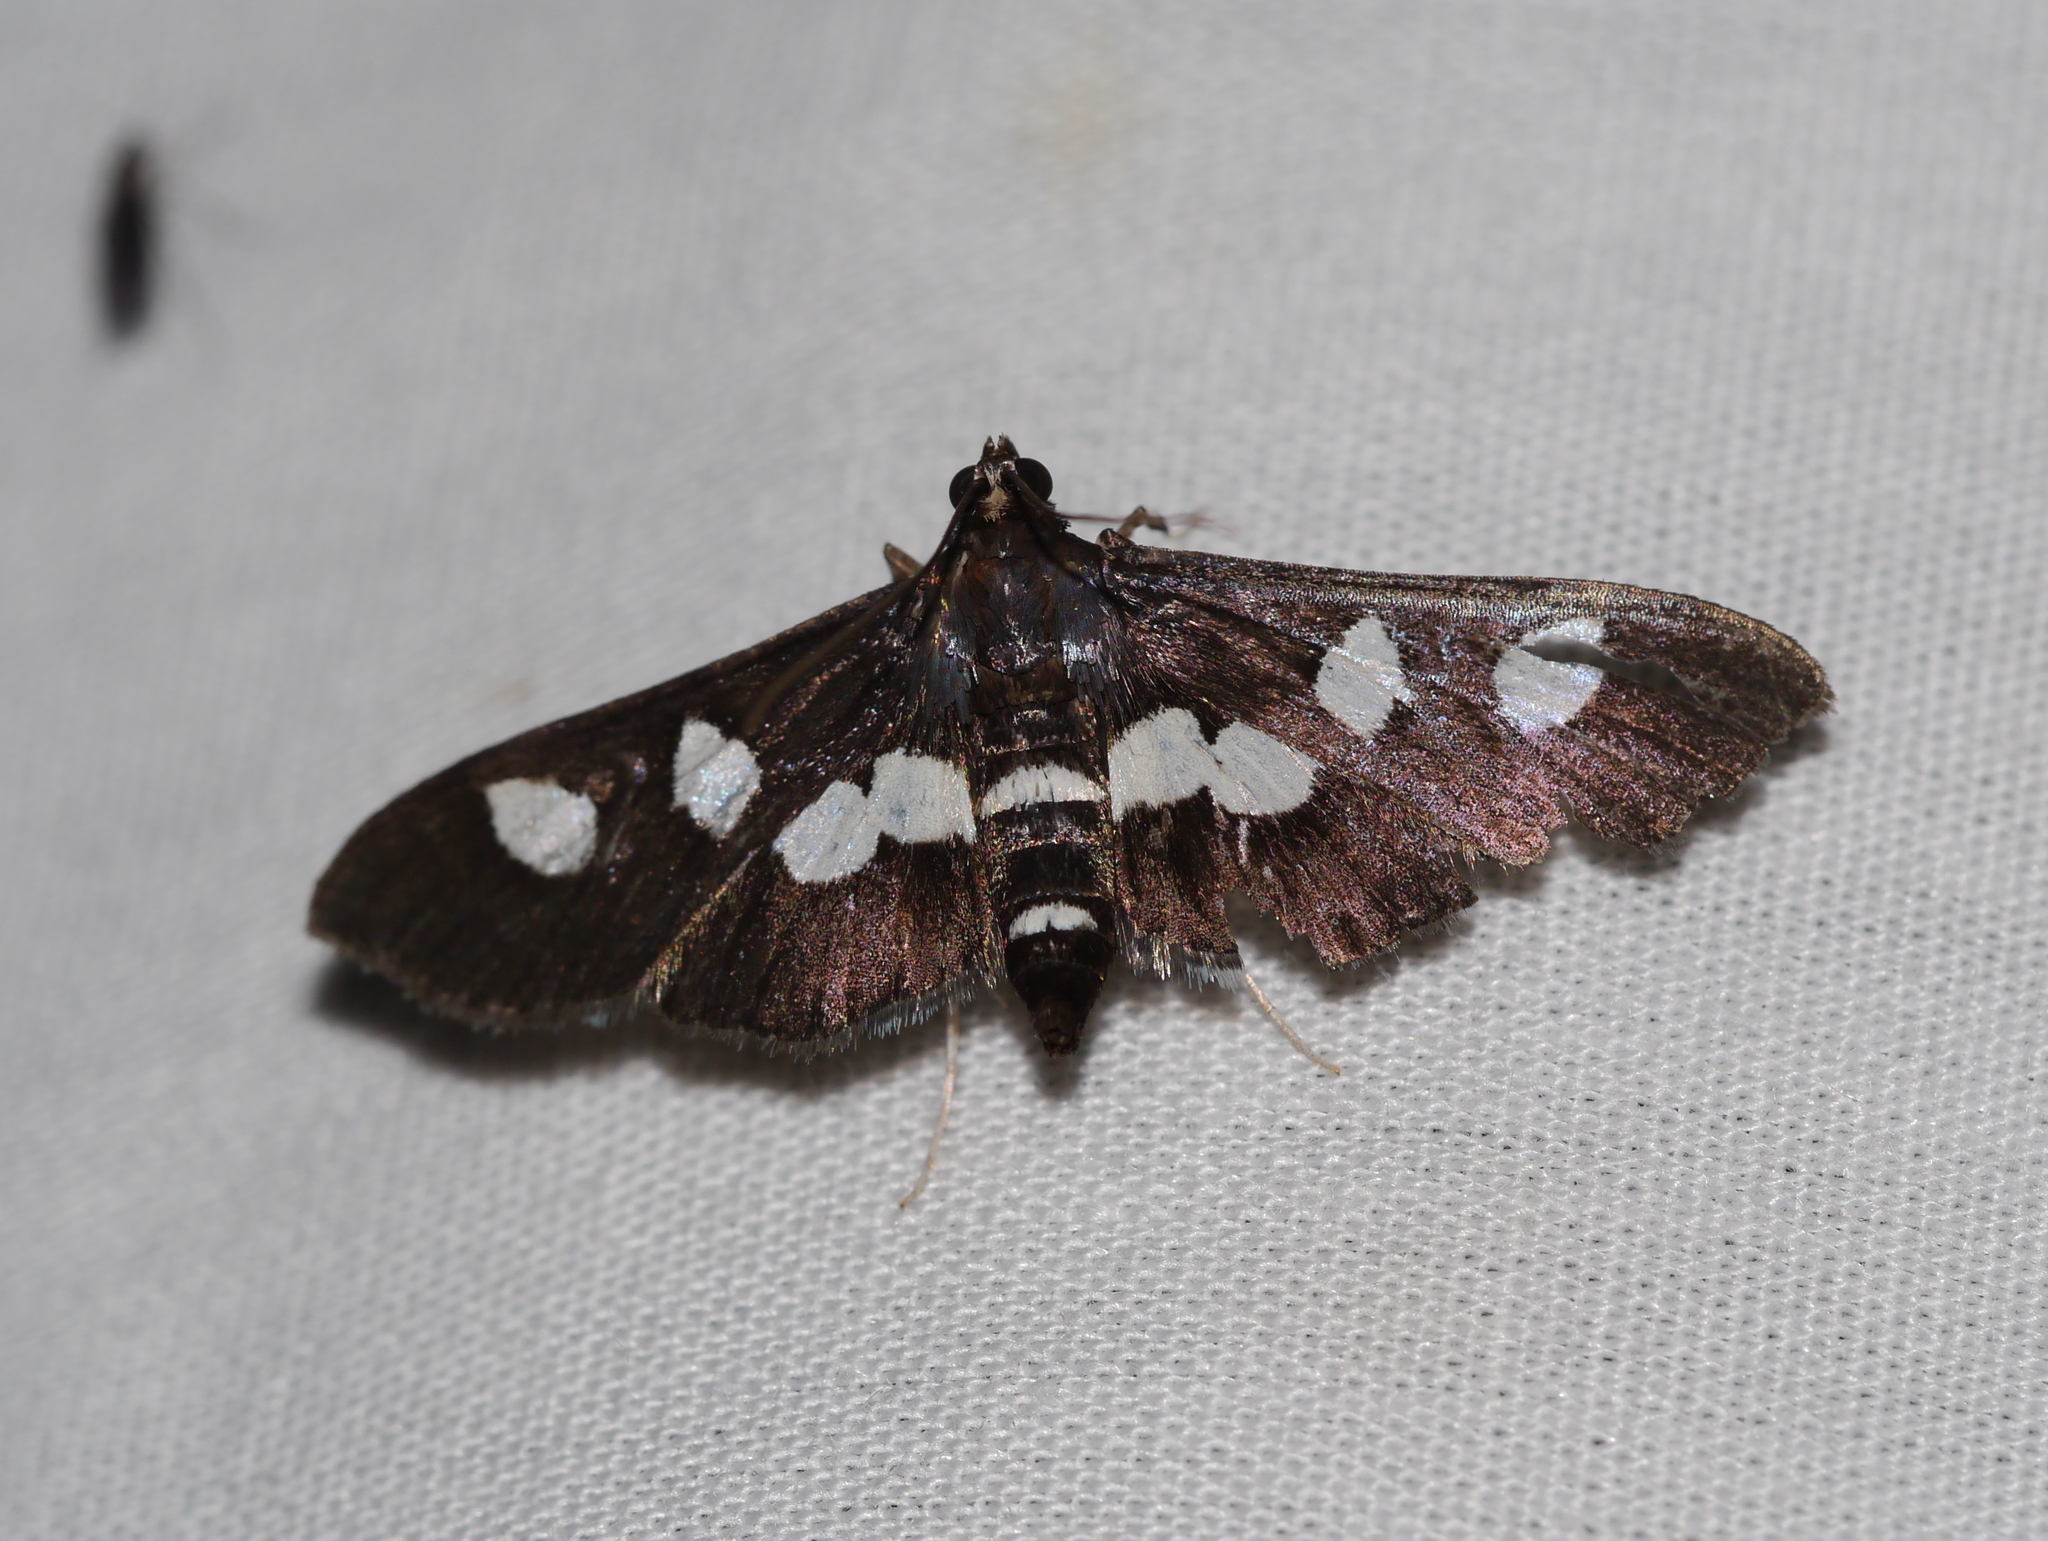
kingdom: Animalia
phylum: Arthropoda
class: Insecta
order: Lepidoptera
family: Crambidae
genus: Desmia
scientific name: Desmia funeralis
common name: Grape leaf folder moth
